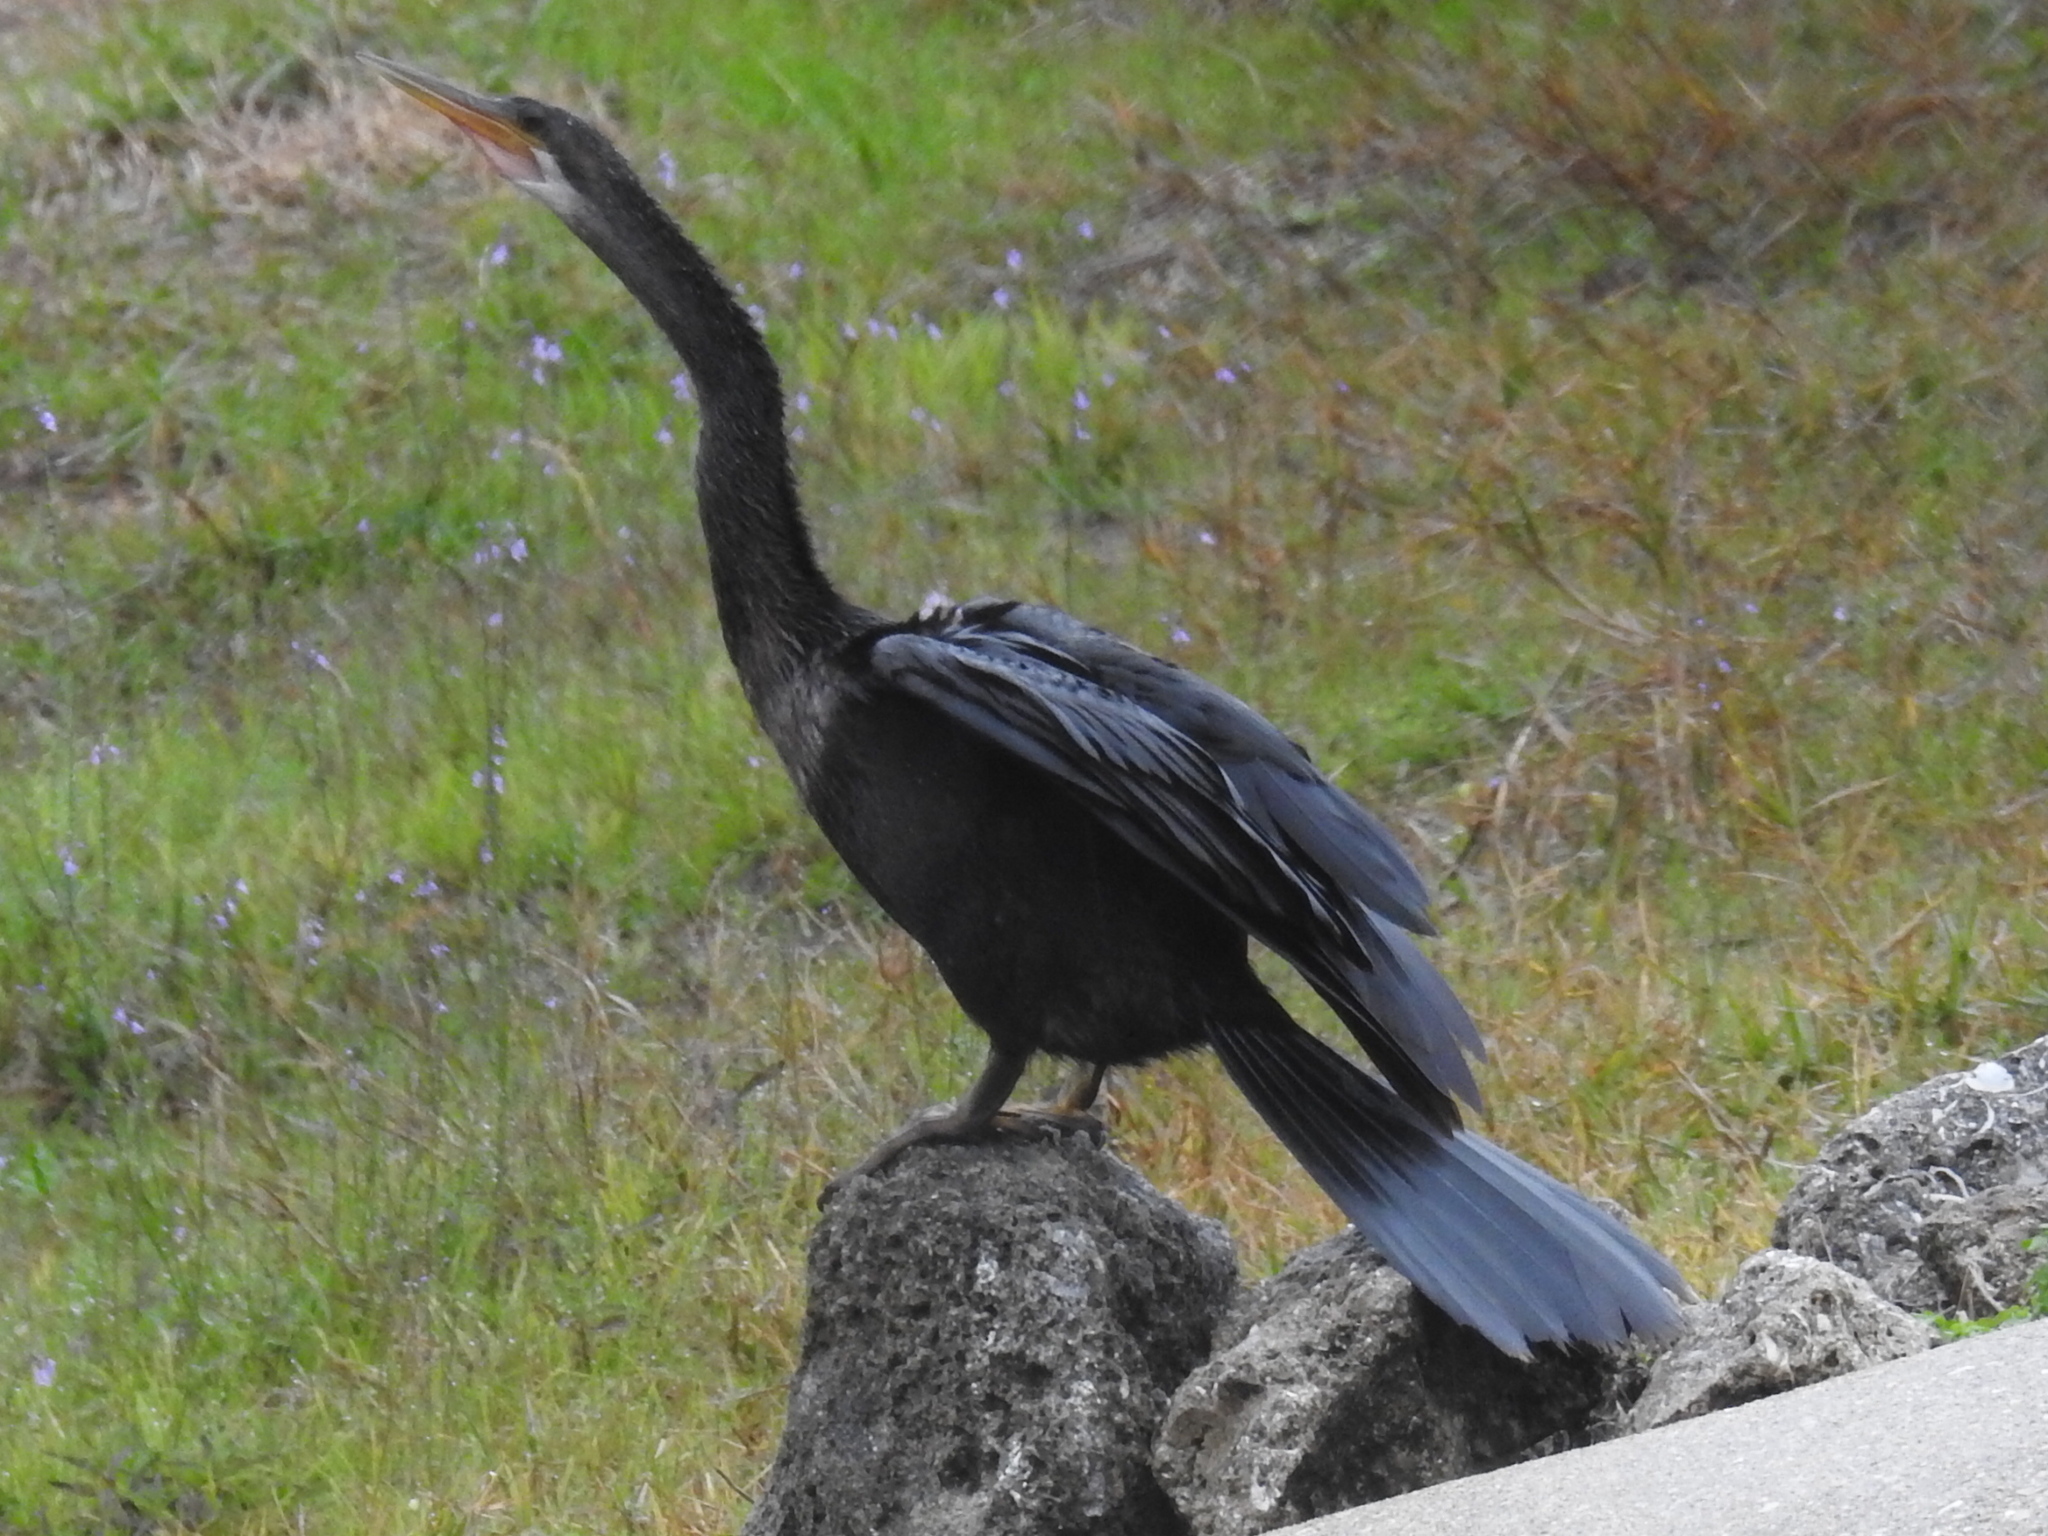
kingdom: Animalia
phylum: Chordata
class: Aves
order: Suliformes
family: Anhingidae
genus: Anhinga
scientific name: Anhinga anhinga
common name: Anhinga
